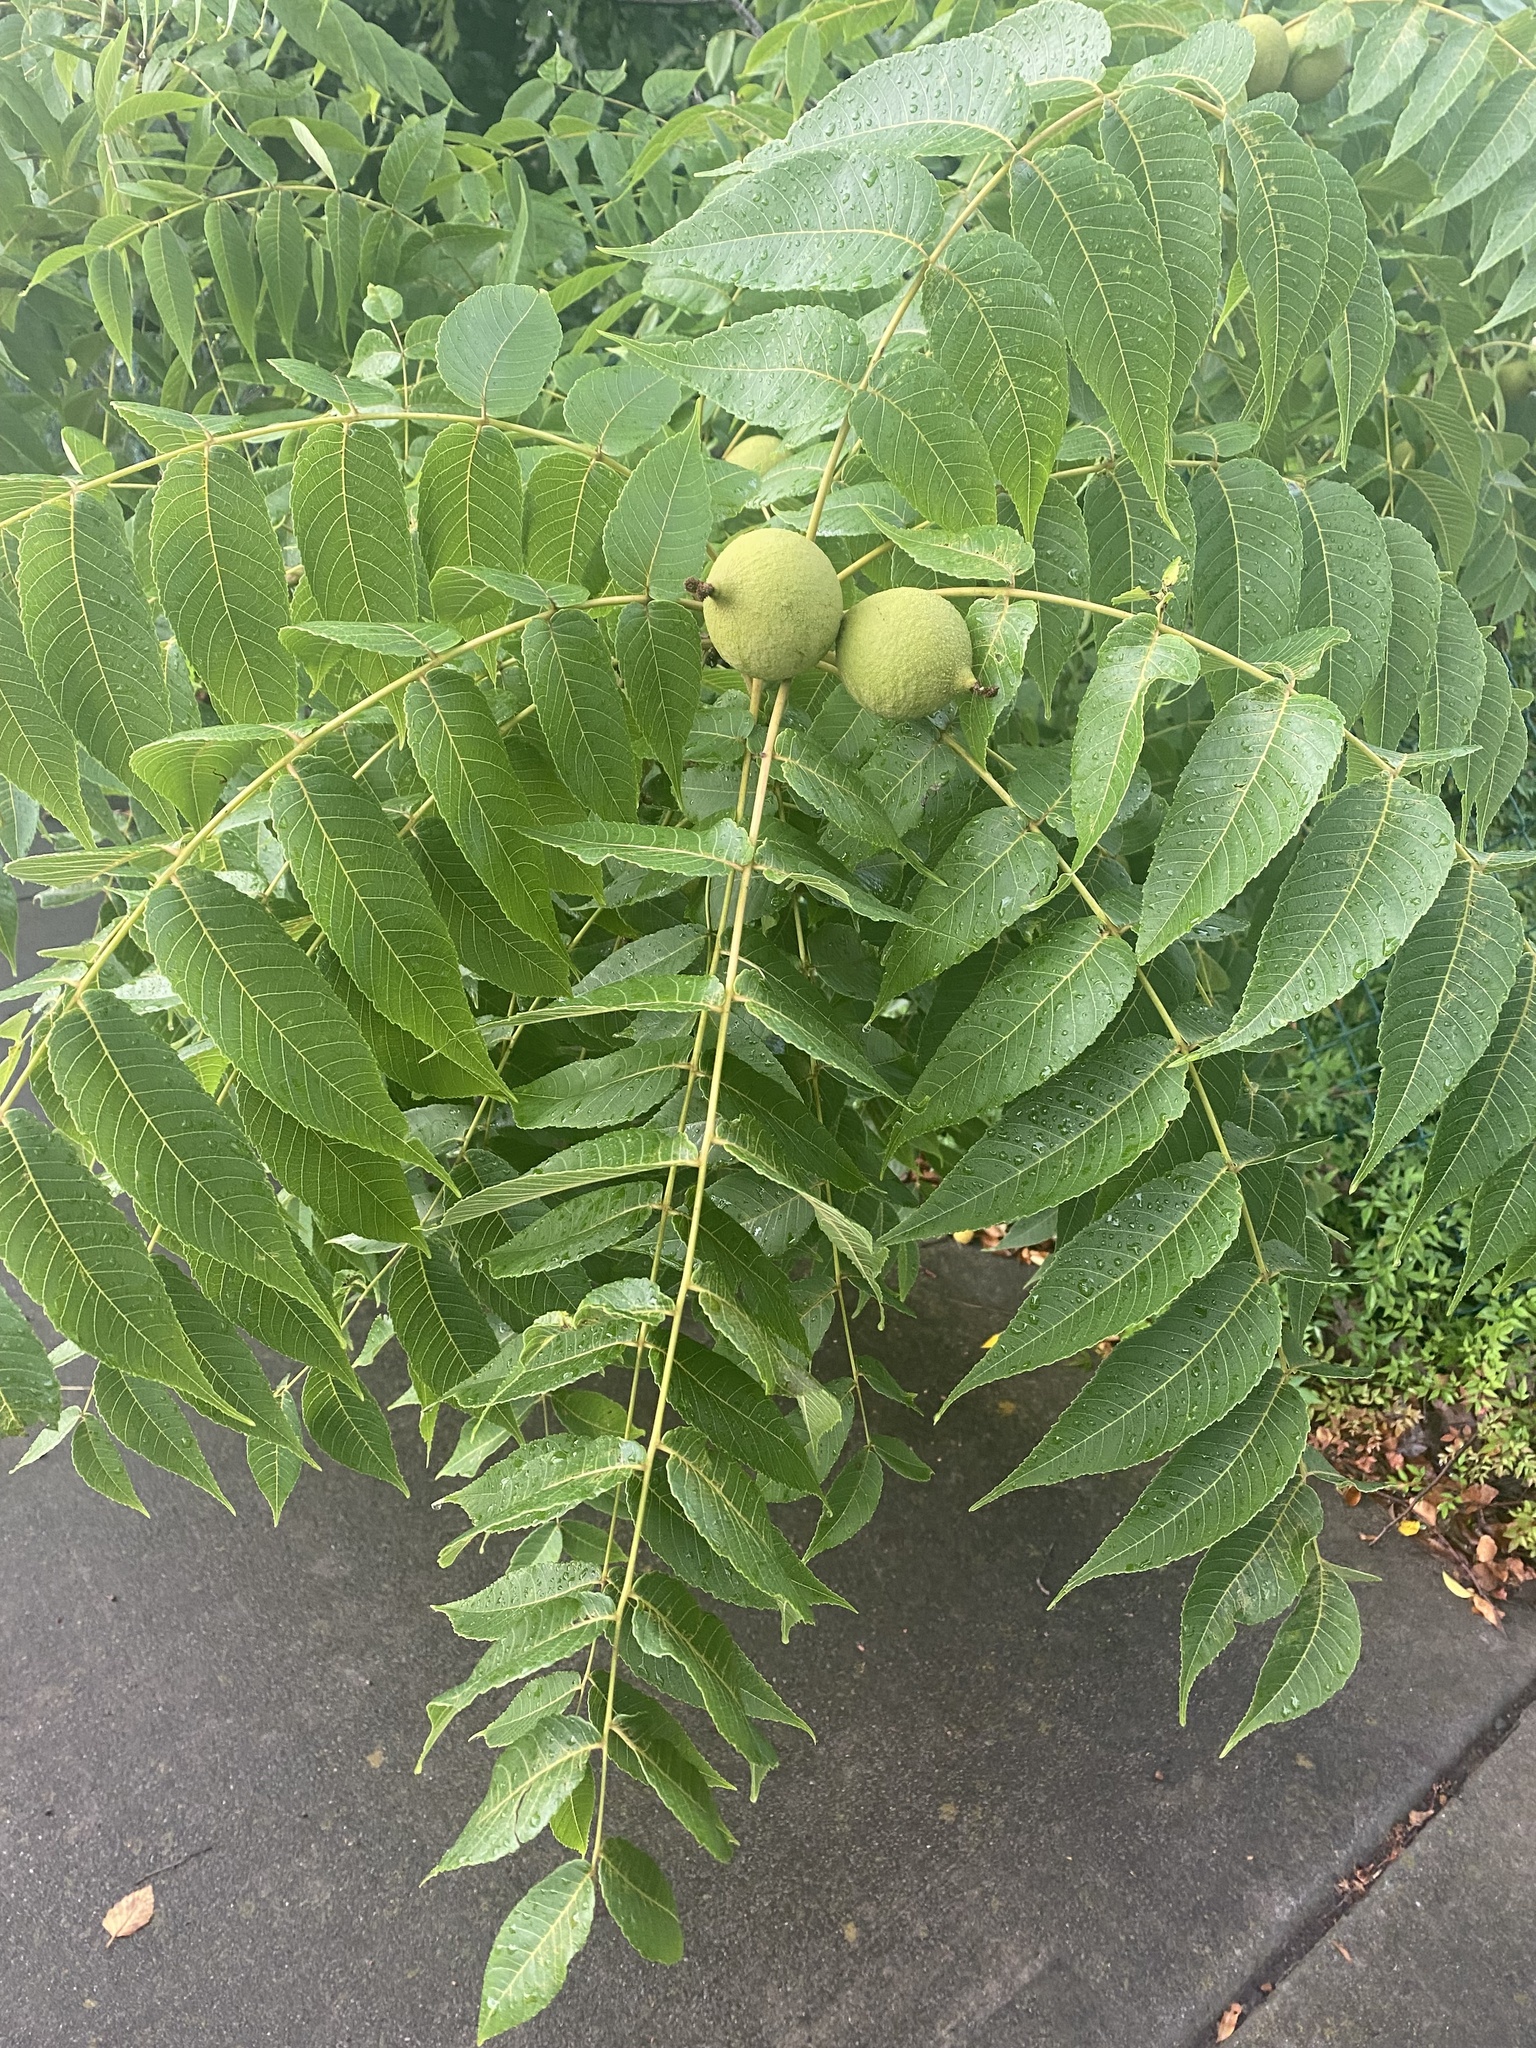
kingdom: Plantae
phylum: Tracheophyta
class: Magnoliopsida
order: Fagales
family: Juglandaceae
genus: Juglans
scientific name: Juglans nigra
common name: Black walnut
